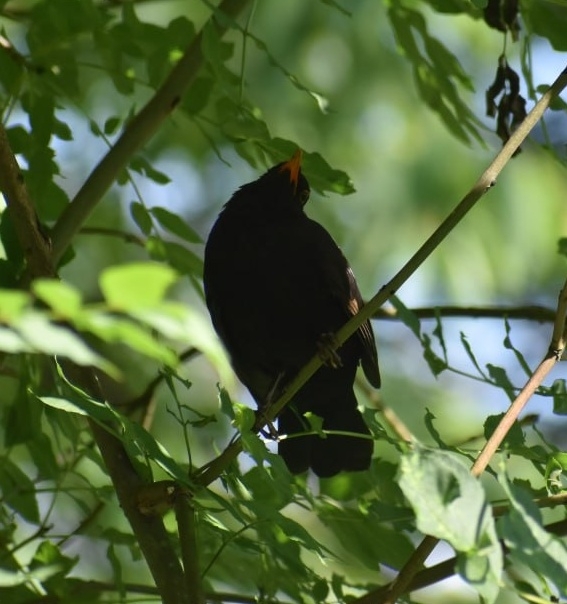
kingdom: Animalia
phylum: Chordata
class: Aves
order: Passeriformes
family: Turdidae
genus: Turdus
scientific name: Turdus merula
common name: Common blackbird
